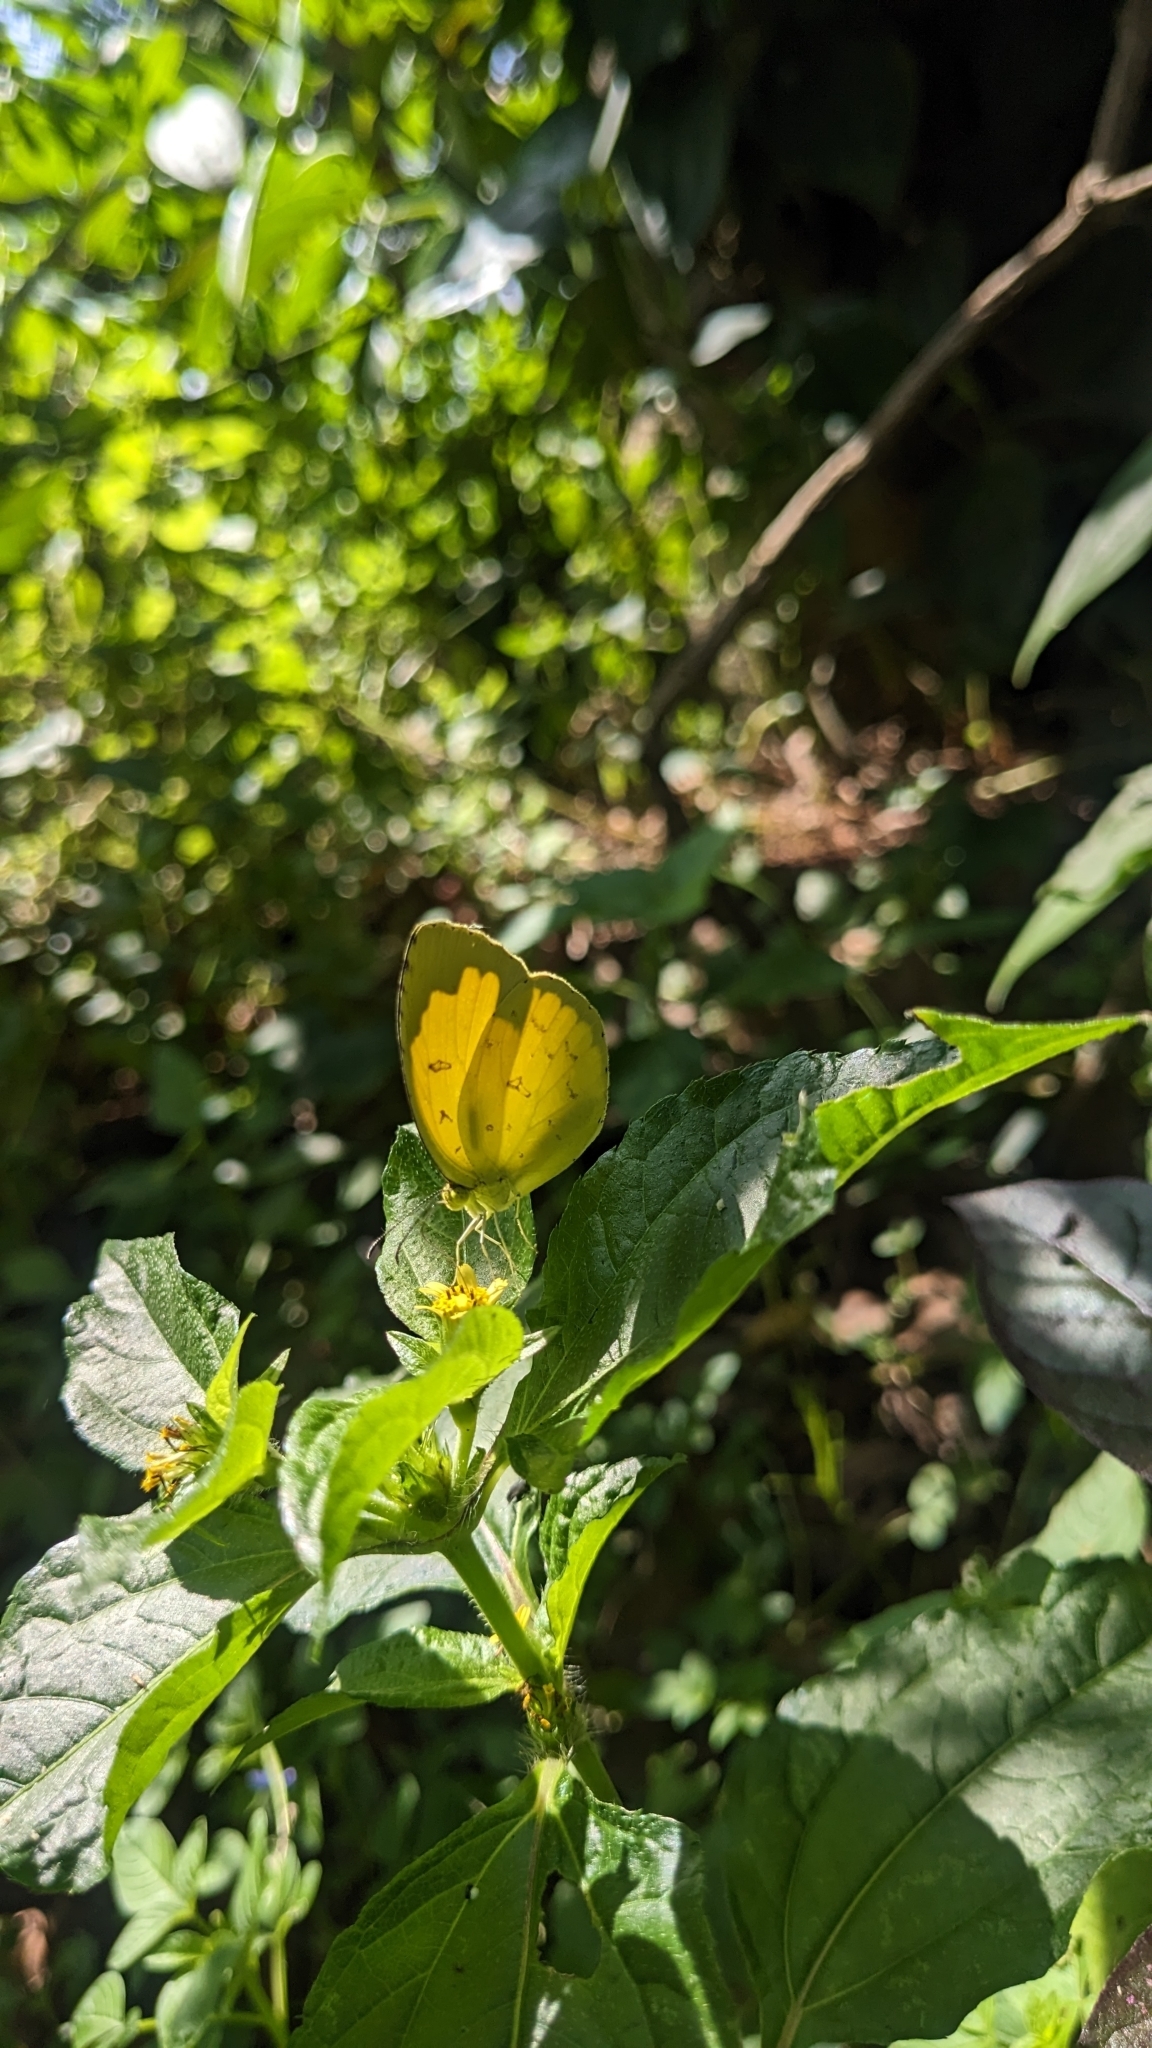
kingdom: Animalia
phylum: Arthropoda
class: Insecta
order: Lepidoptera
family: Pieridae
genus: Eurema
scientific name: Eurema hecabe
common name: Pale grass yellow
